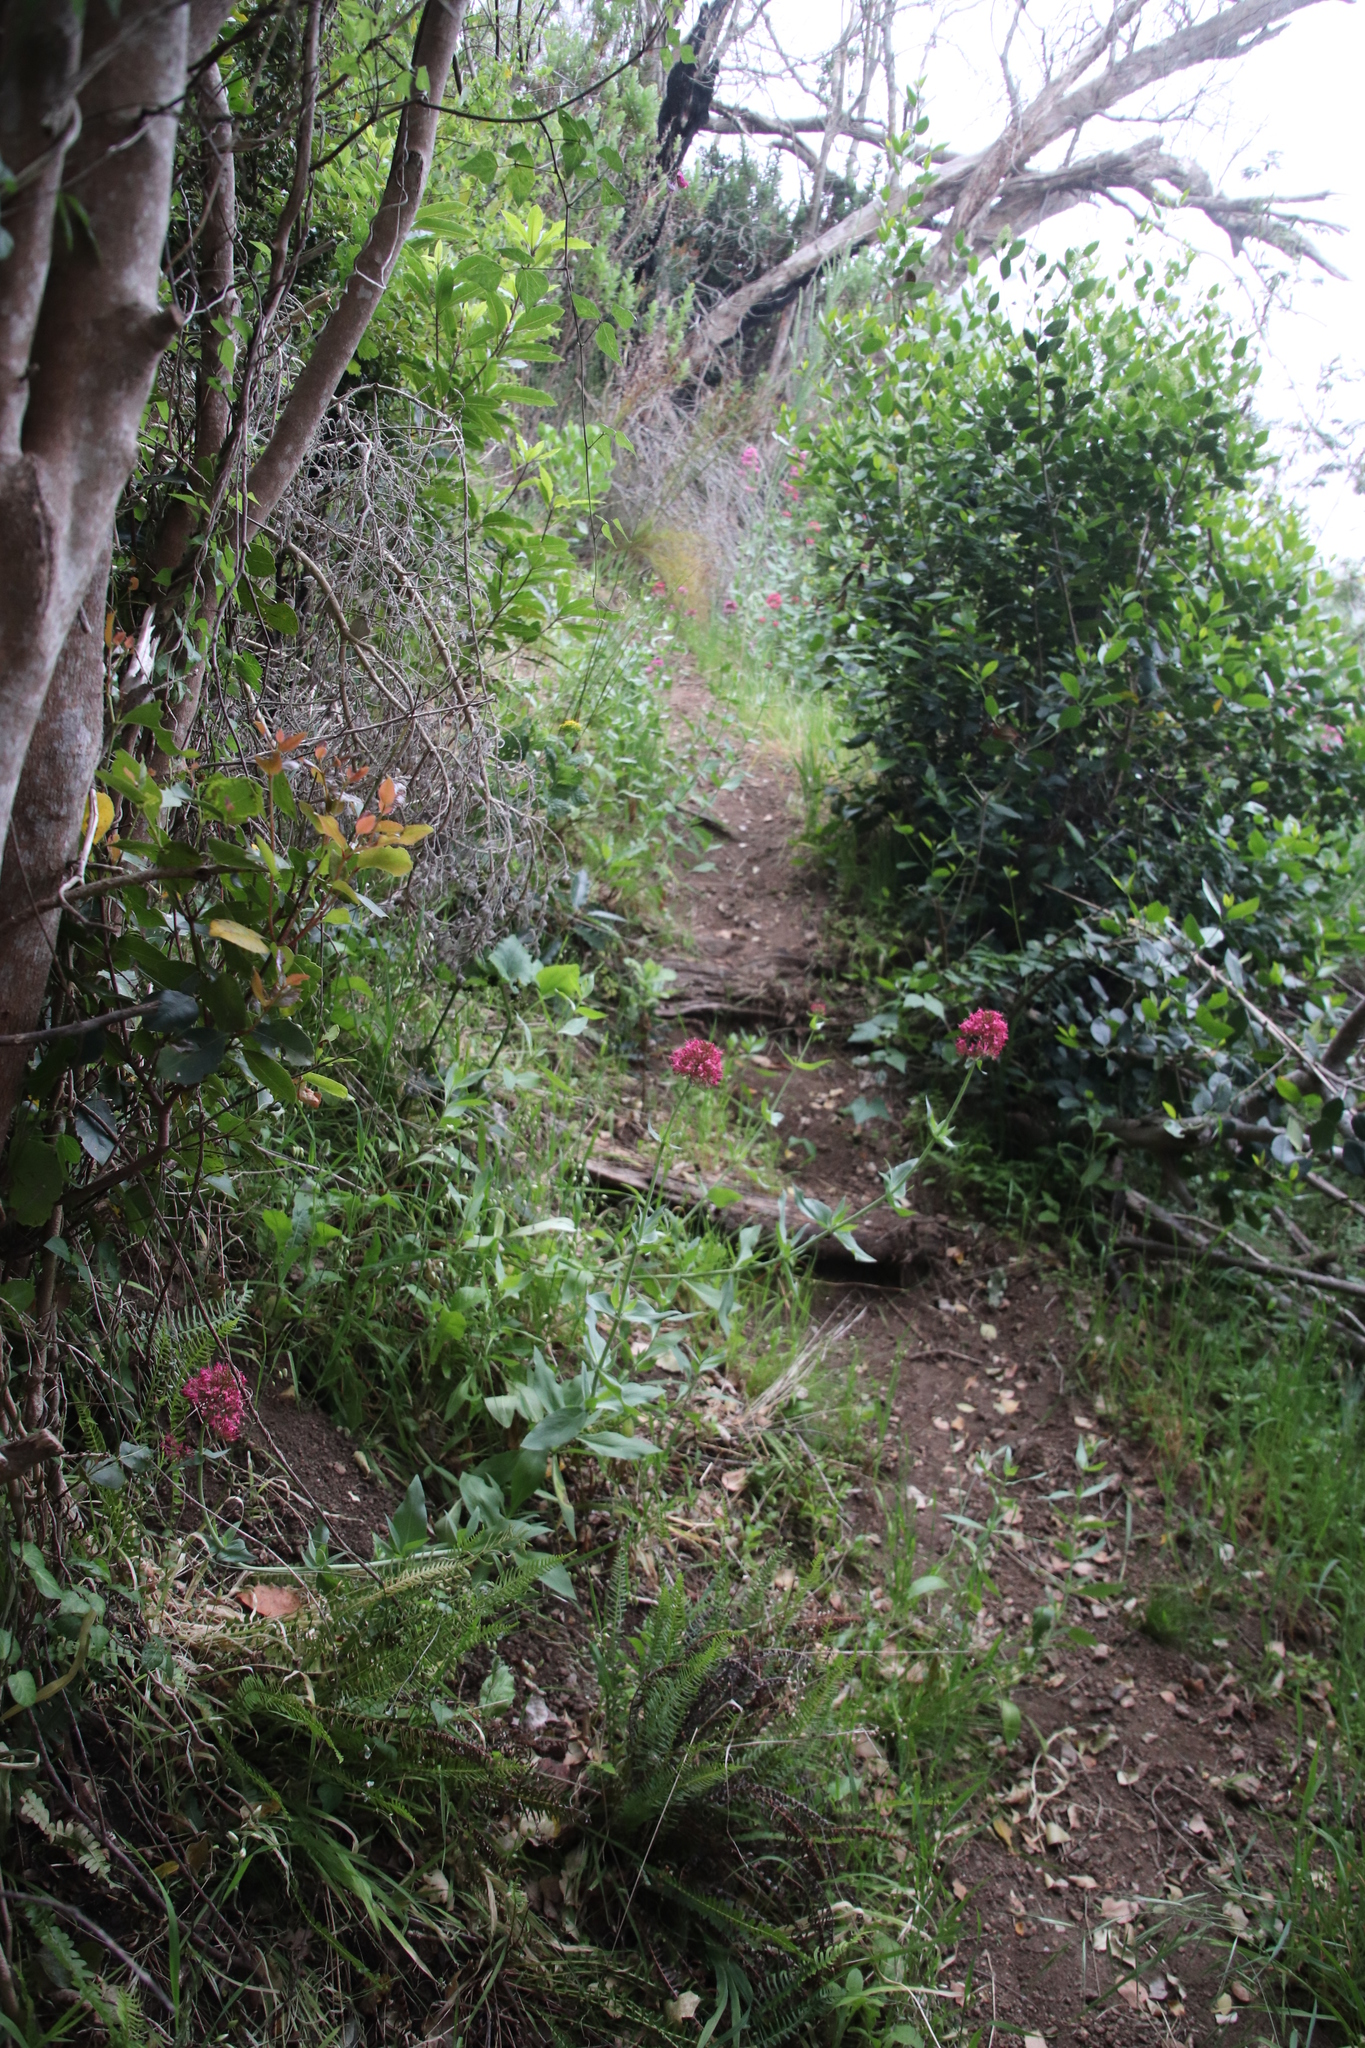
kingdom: Plantae
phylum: Tracheophyta
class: Magnoliopsida
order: Dipsacales
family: Caprifoliaceae
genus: Centranthus
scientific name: Centranthus ruber
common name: Red valerian
